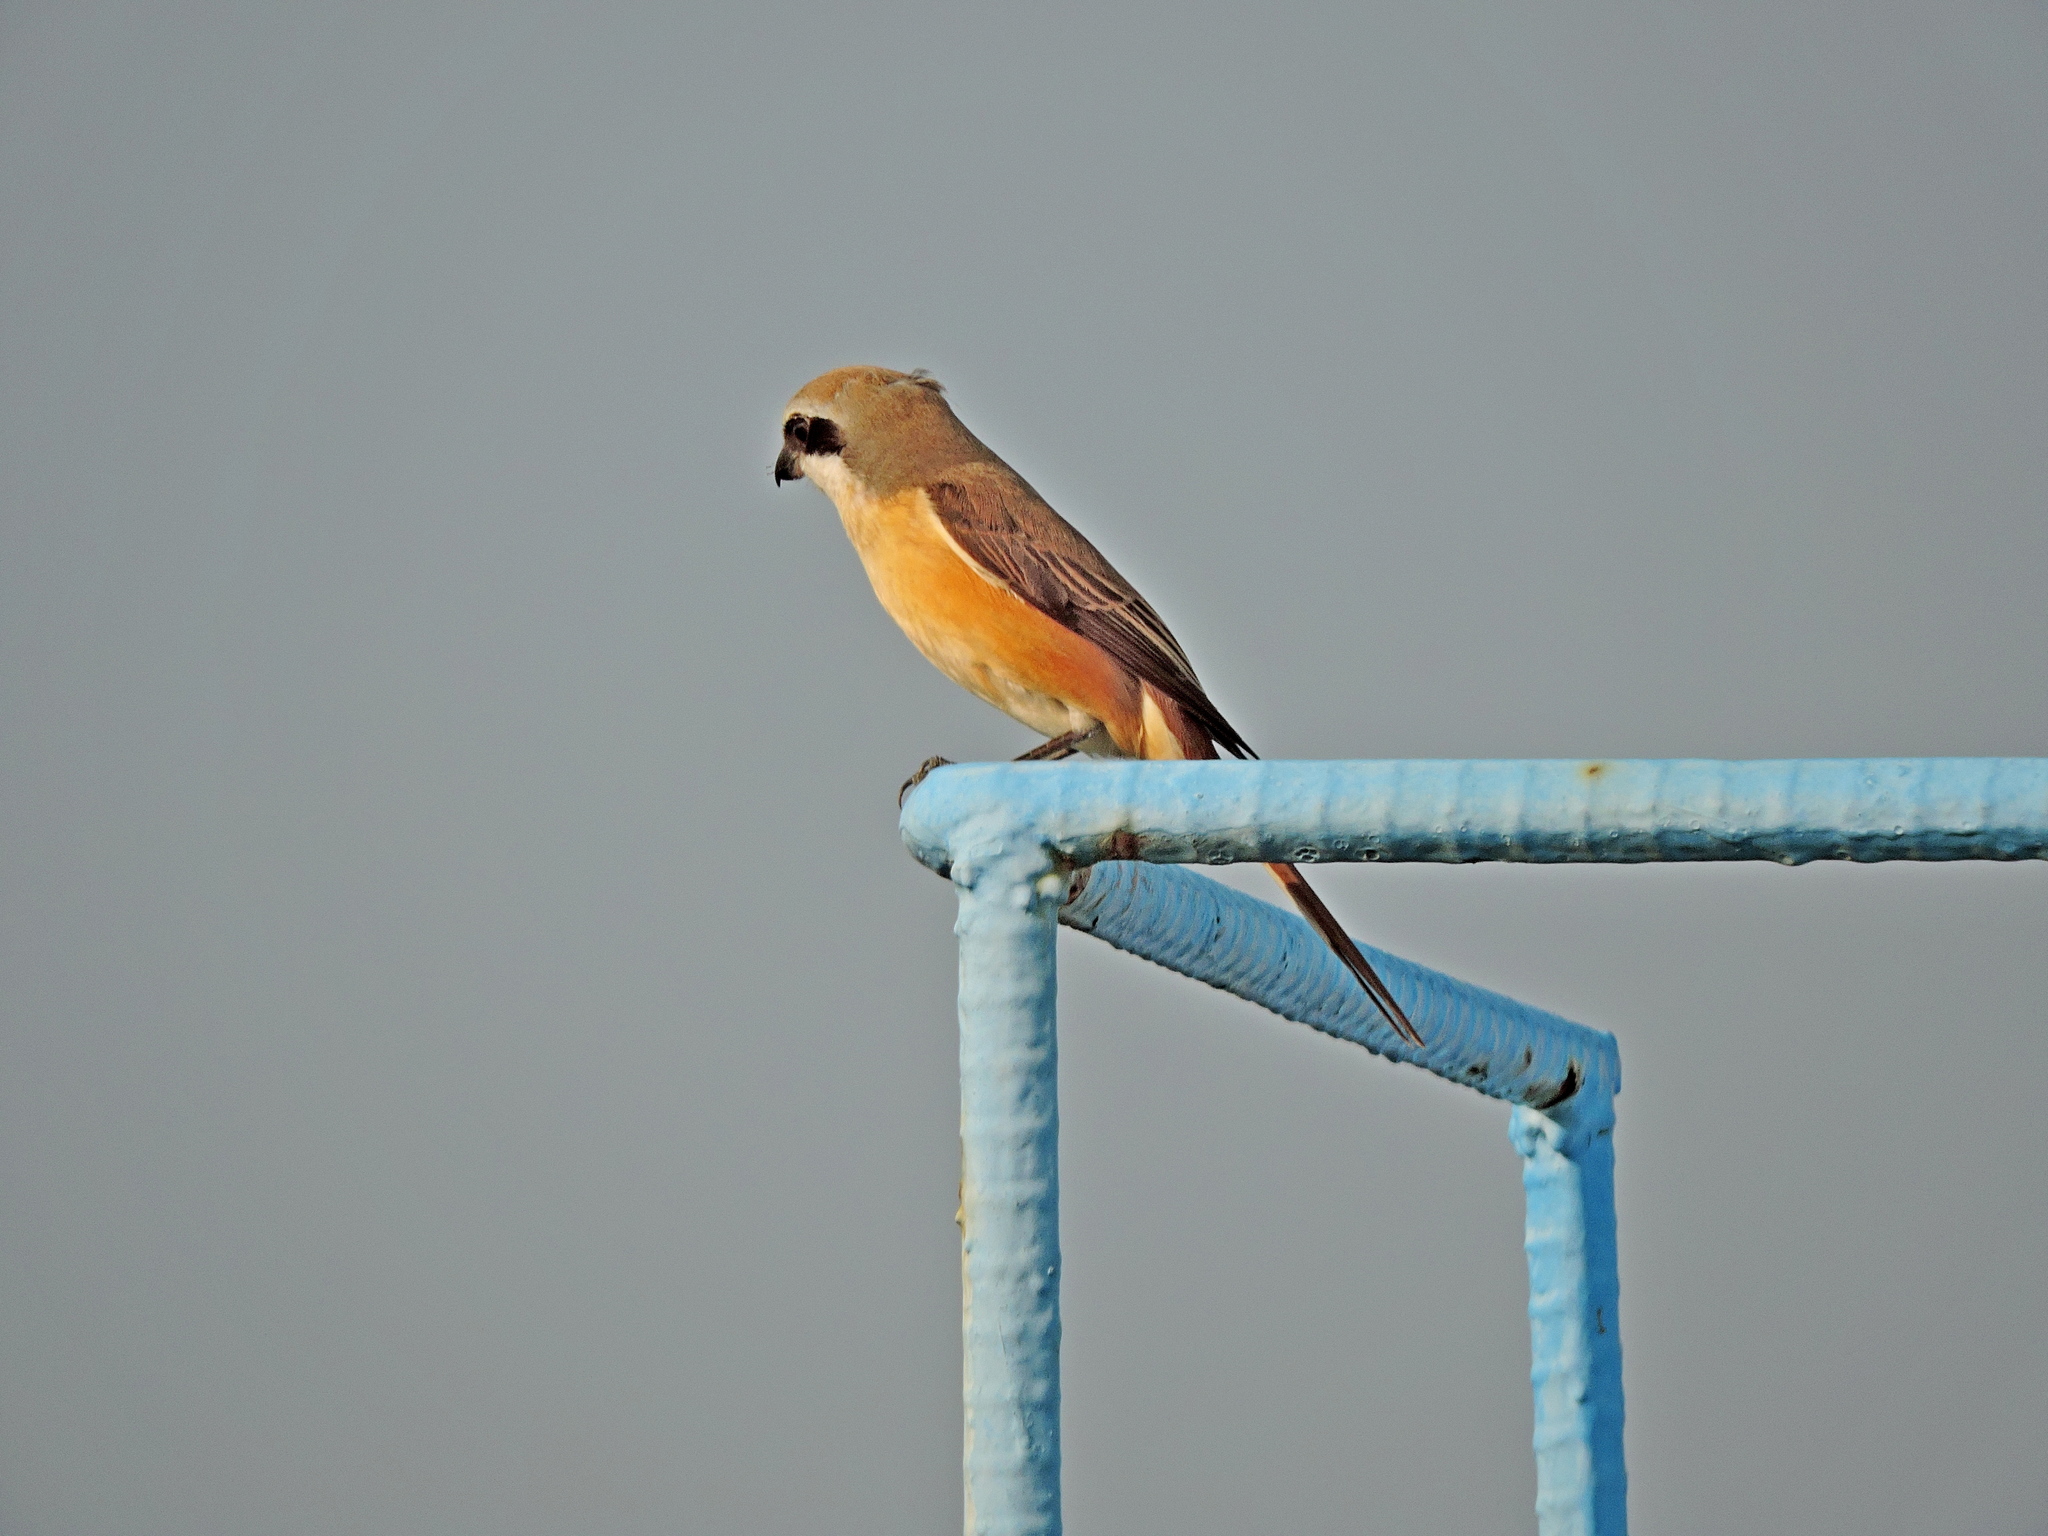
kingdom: Animalia
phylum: Chordata
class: Aves
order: Passeriformes
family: Laniidae
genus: Lanius
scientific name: Lanius cristatus
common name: Brown shrike
